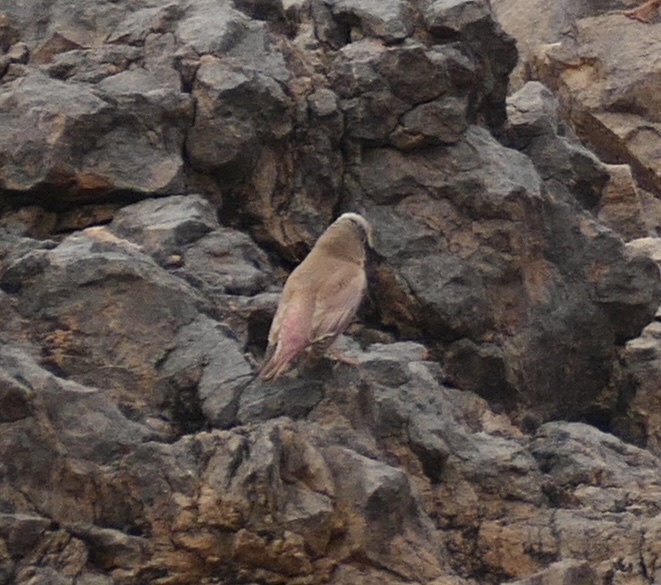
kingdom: Animalia
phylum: Chordata
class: Aves
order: Passeriformes
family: Fringillidae
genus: Bucanetes
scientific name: Bucanetes githagineus
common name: Trumpeter finch
